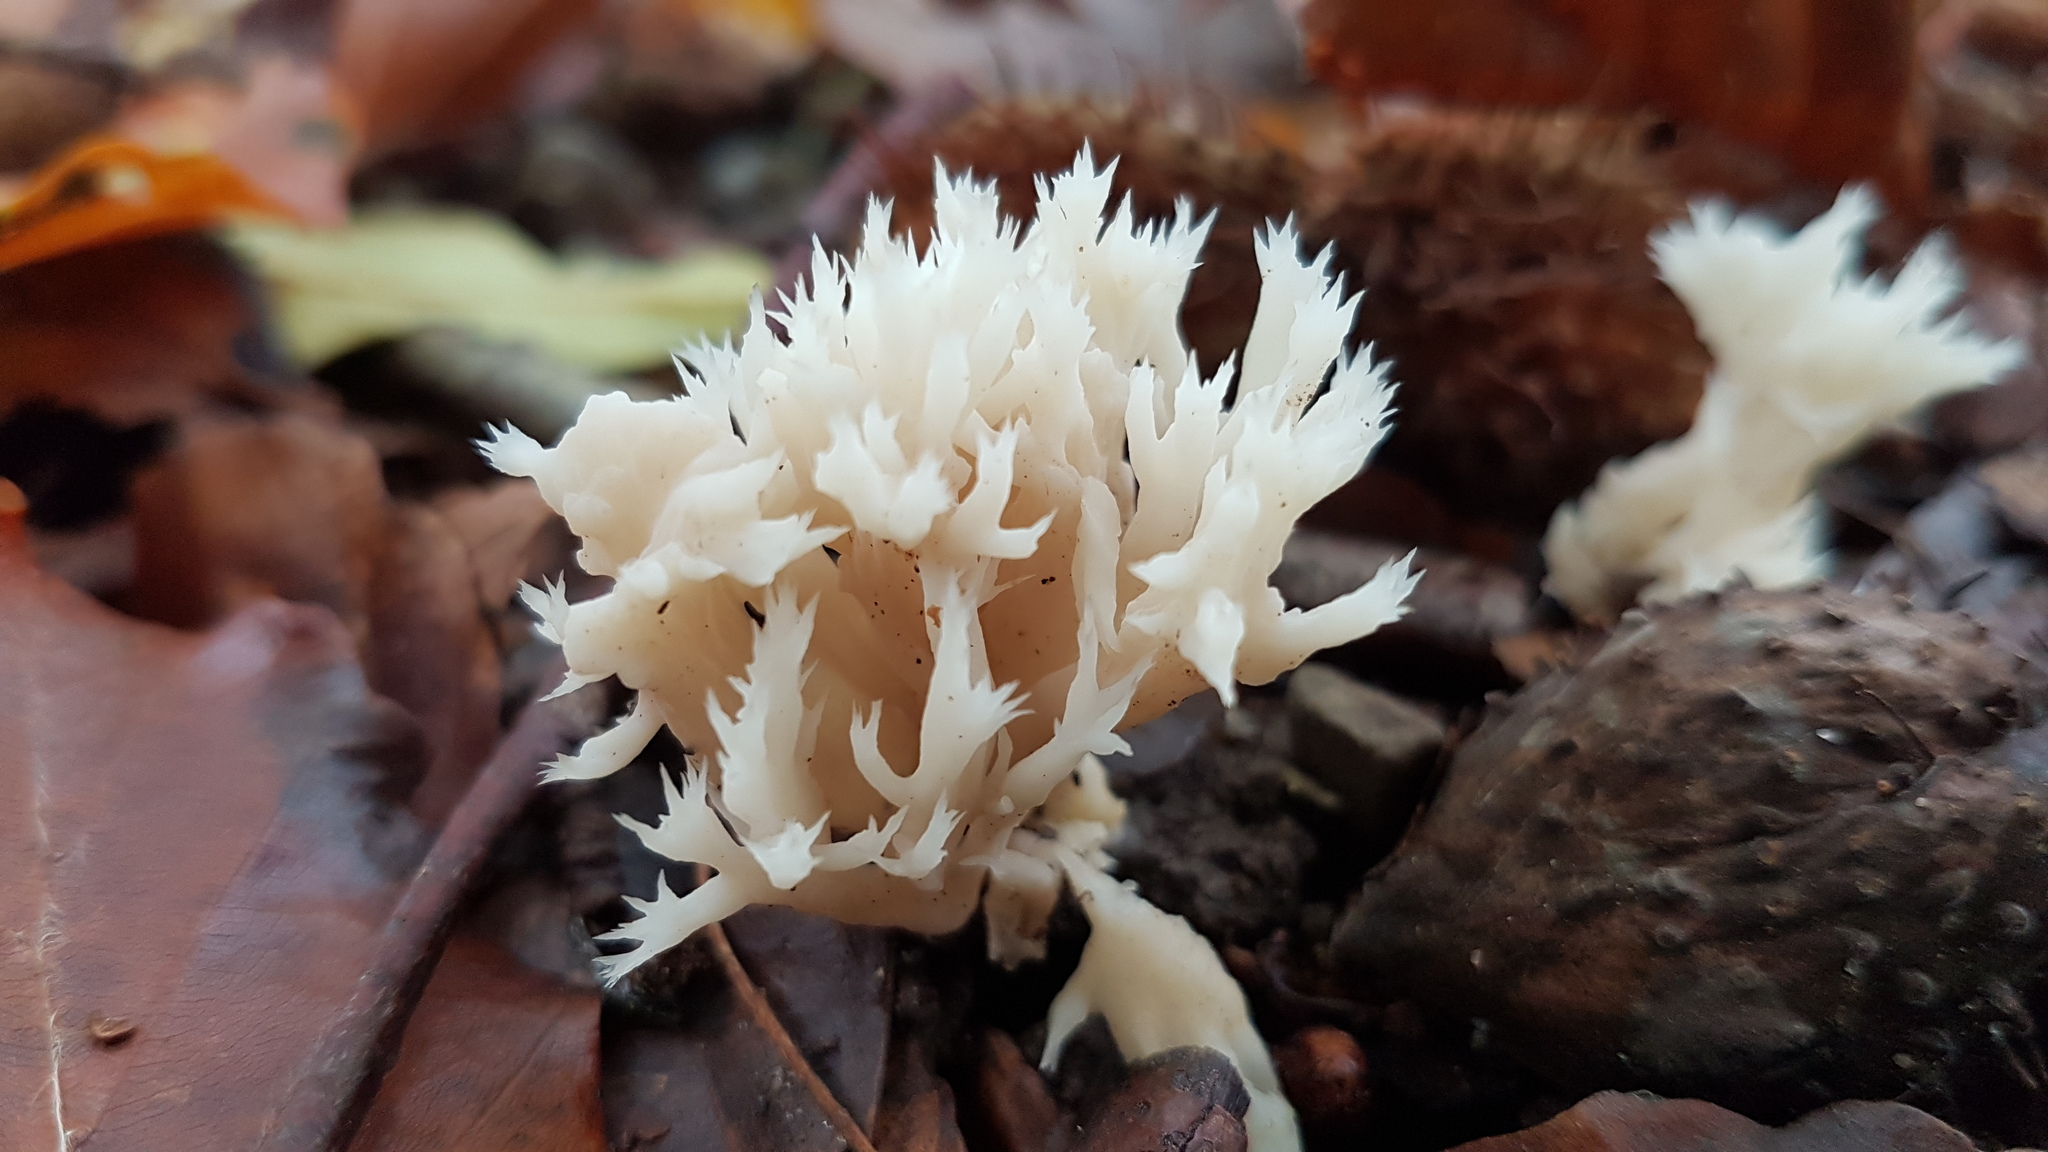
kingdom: Fungi
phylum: Basidiomycota
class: Agaricomycetes
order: Cantharellales
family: Hydnaceae
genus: Clavulina
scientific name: Clavulina coralloides
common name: Crested coral
